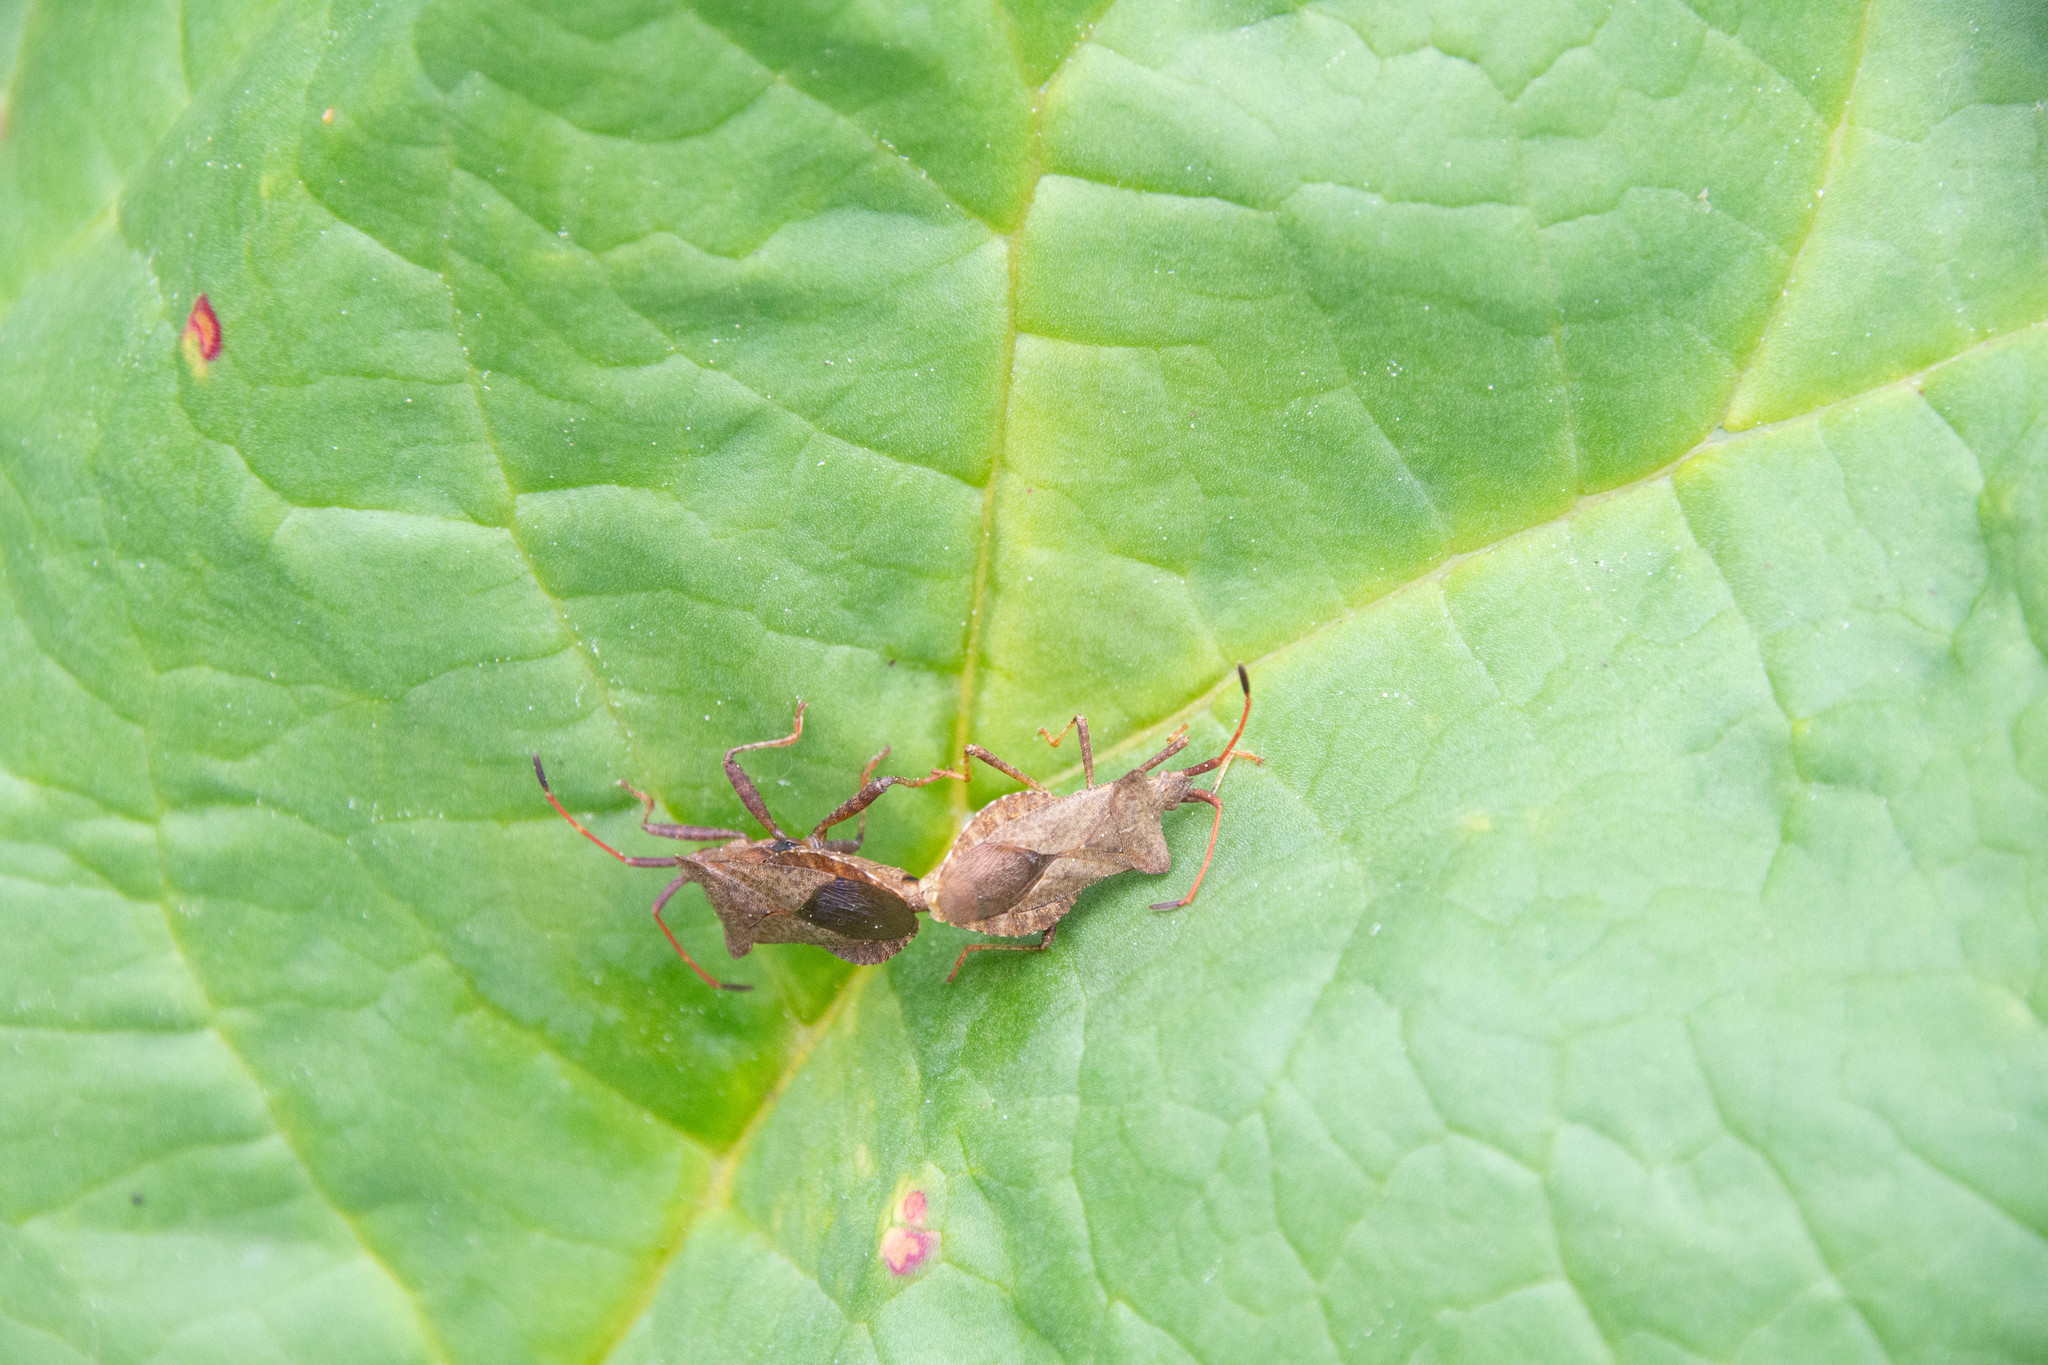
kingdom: Animalia
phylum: Arthropoda
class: Insecta
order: Hemiptera
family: Coreidae
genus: Coreus
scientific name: Coreus marginatus
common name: Dock bug
